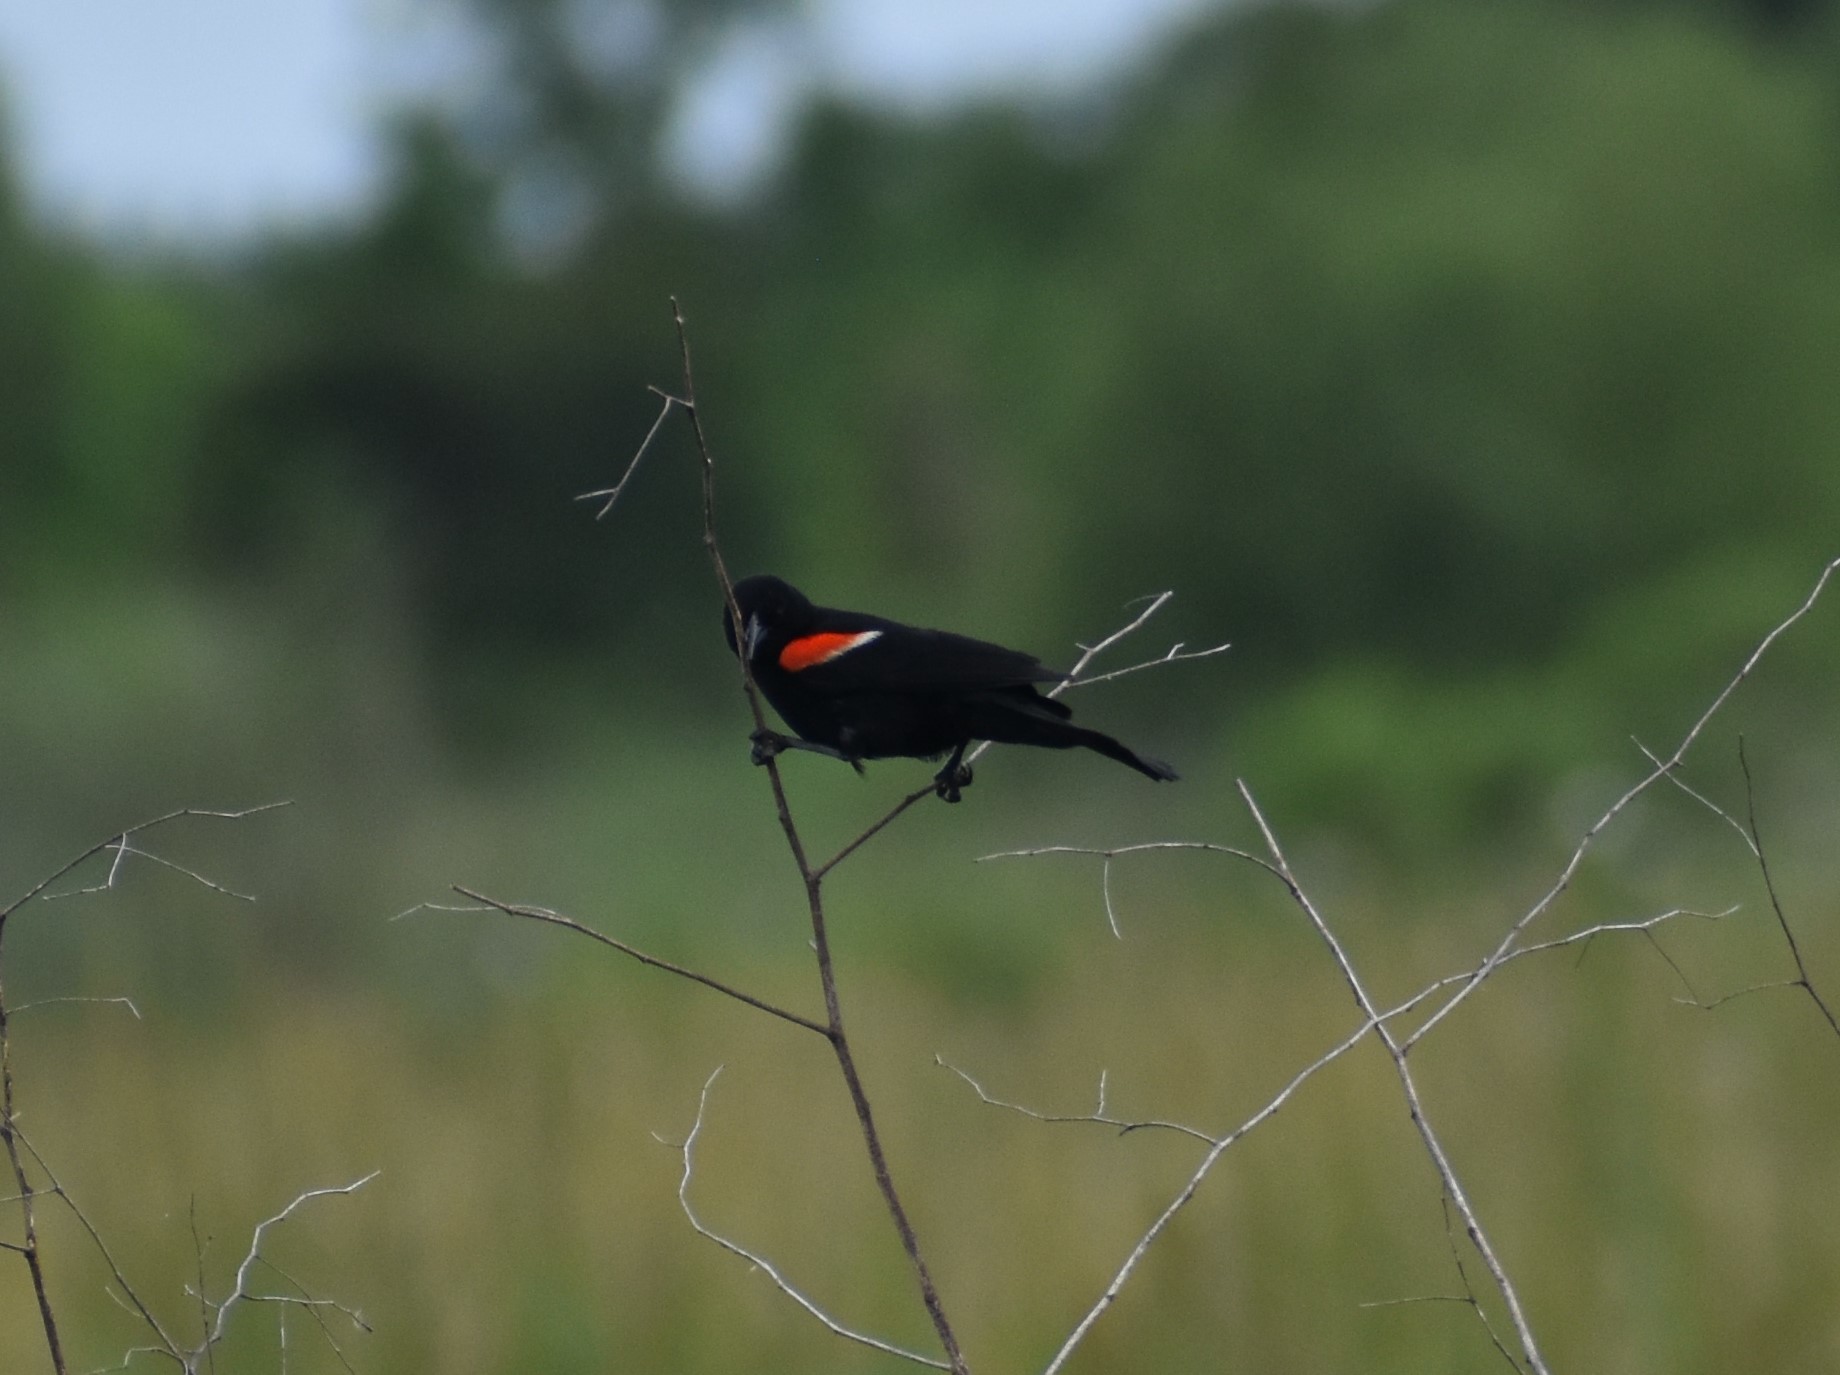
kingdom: Animalia
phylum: Chordata
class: Aves
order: Passeriformes
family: Icteridae
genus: Agelaius
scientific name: Agelaius phoeniceus
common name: Red-winged blackbird
